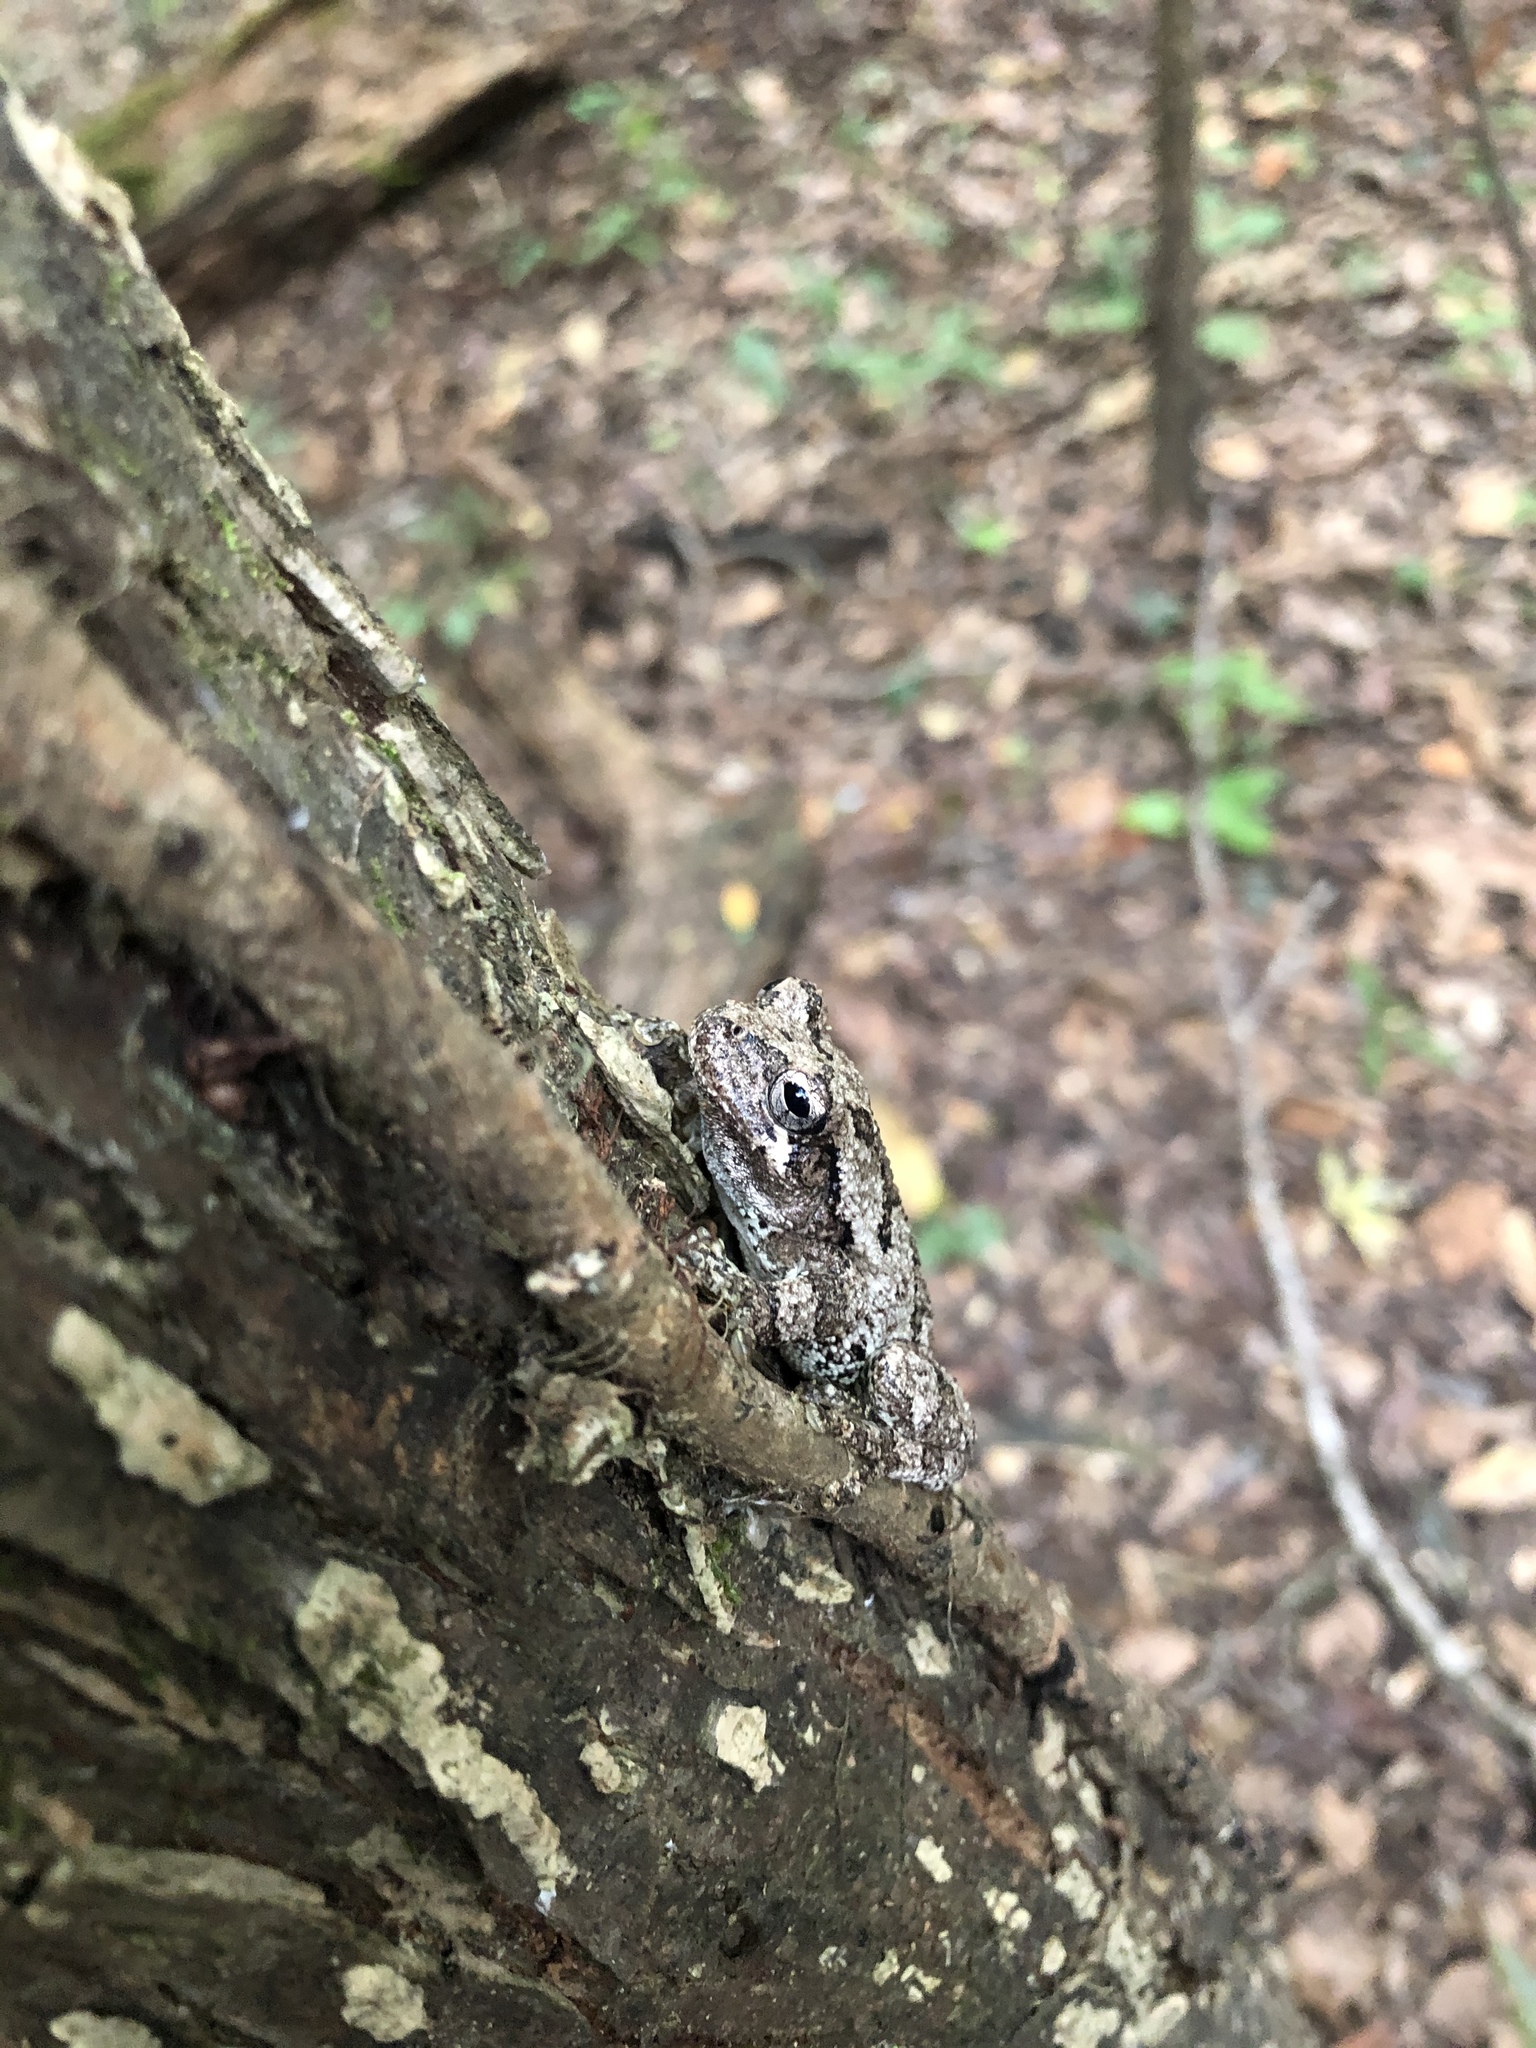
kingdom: Animalia
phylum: Chordata
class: Amphibia
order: Anura
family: Hylidae
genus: Dryophytes
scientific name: Dryophytes chrysoscelis
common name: Cope's gray treefrog
